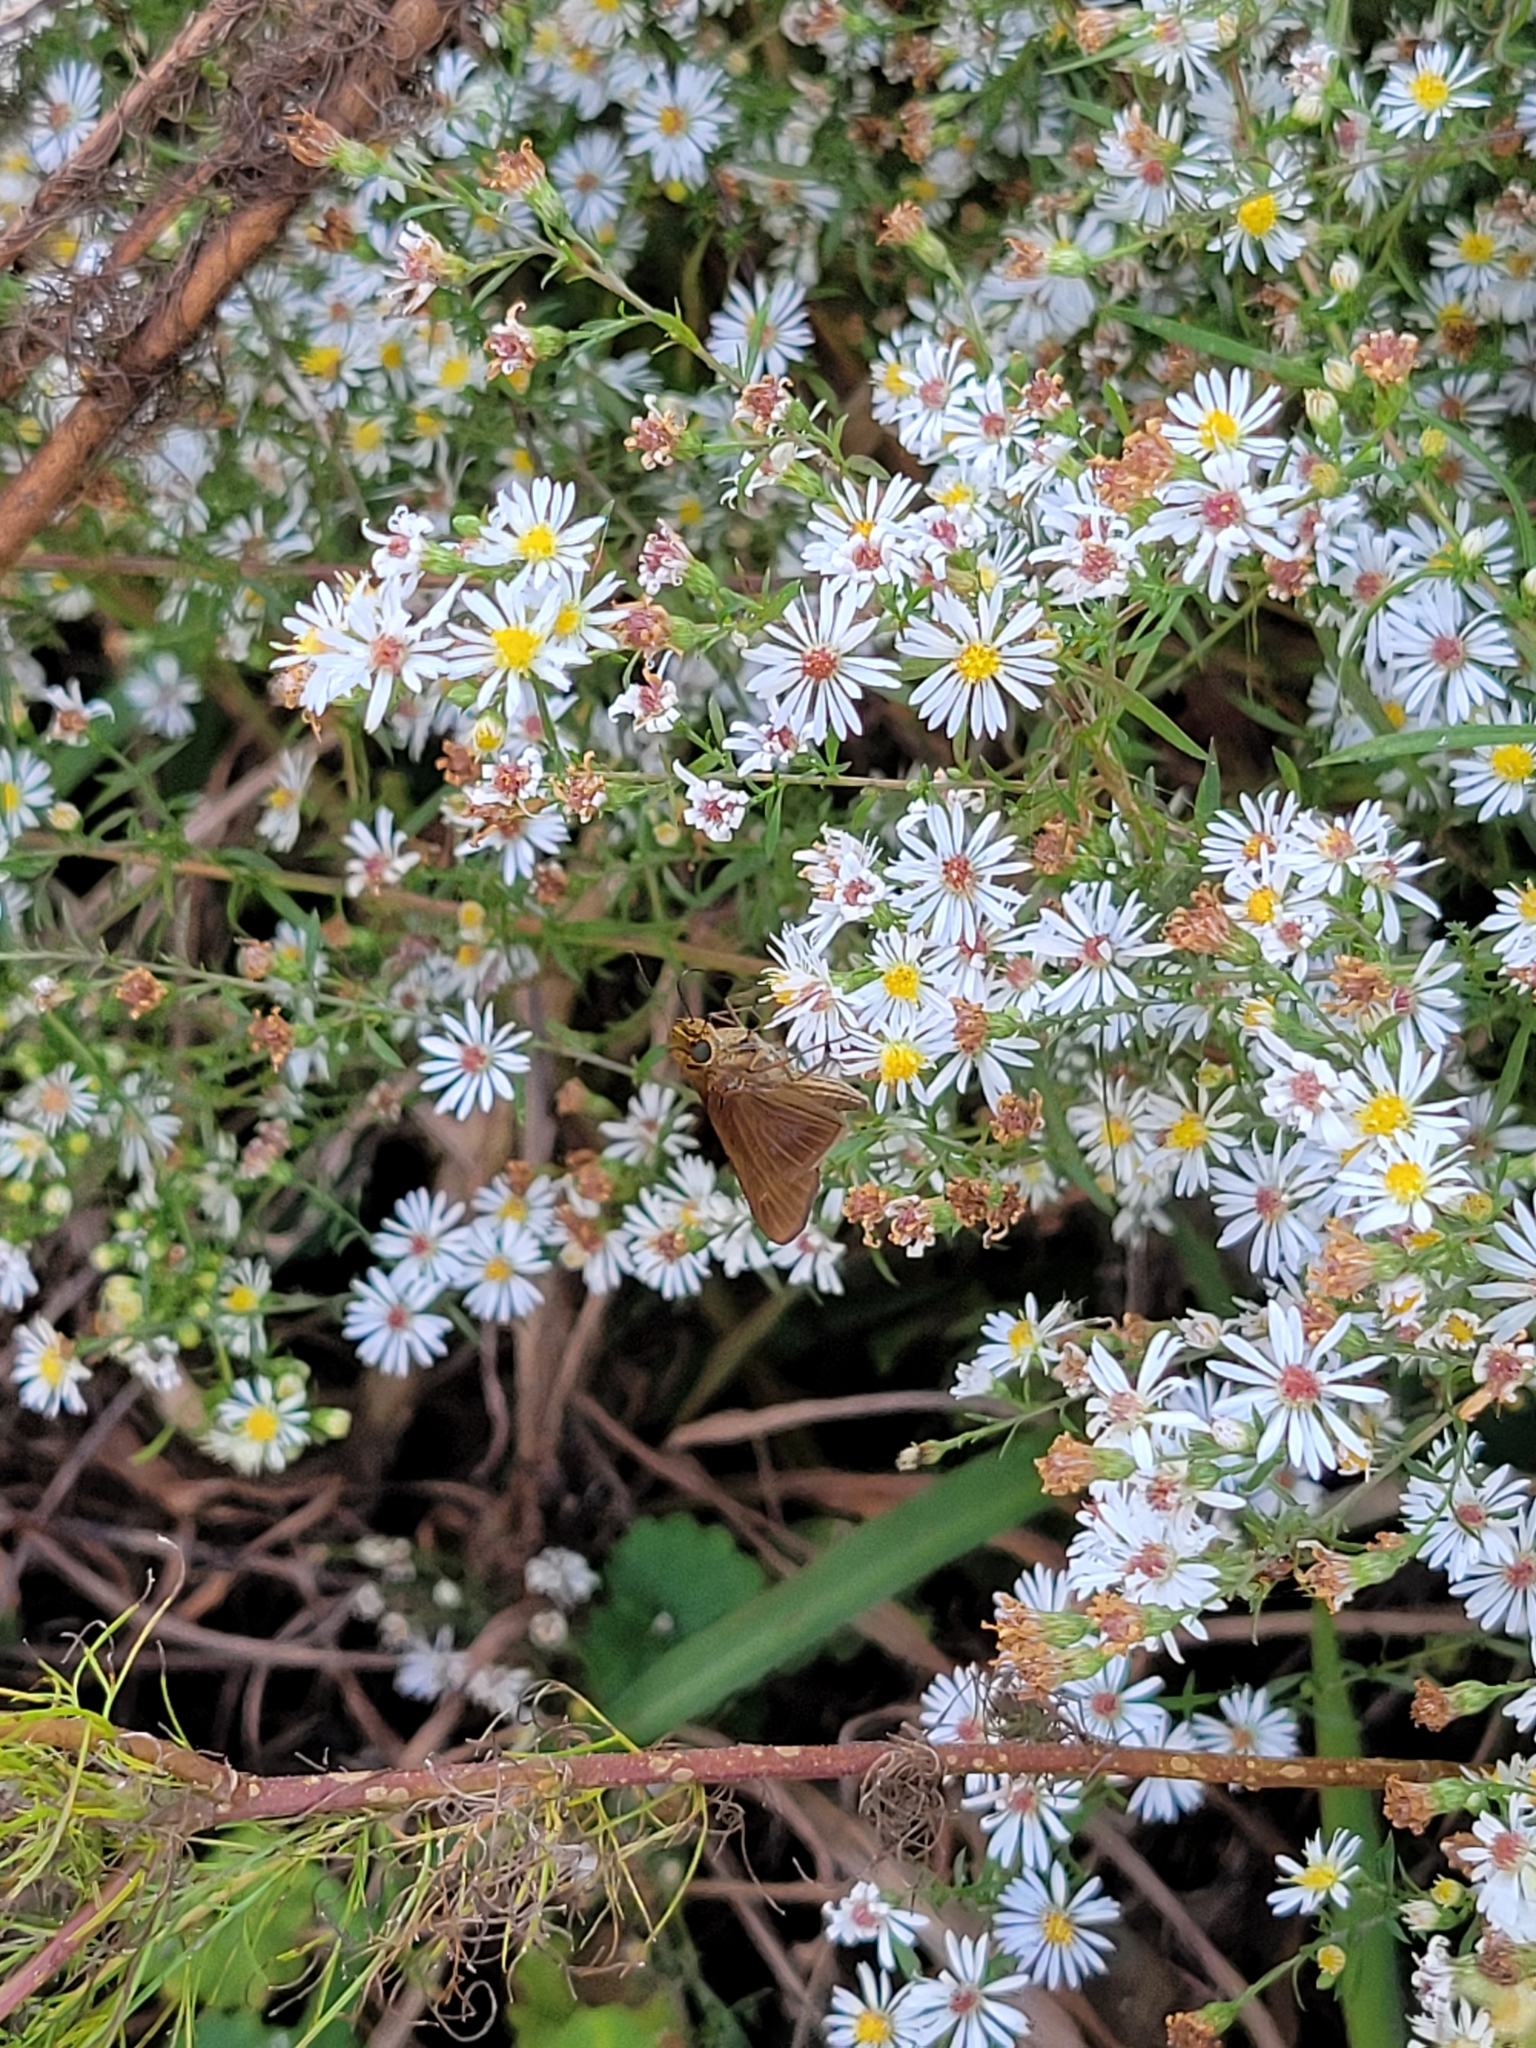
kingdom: Animalia
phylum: Arthropoda
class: Insecta
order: Lepidoptera
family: Hesperiidae
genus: Panoquina
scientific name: Panoquina ocola
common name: Ocola skipper
